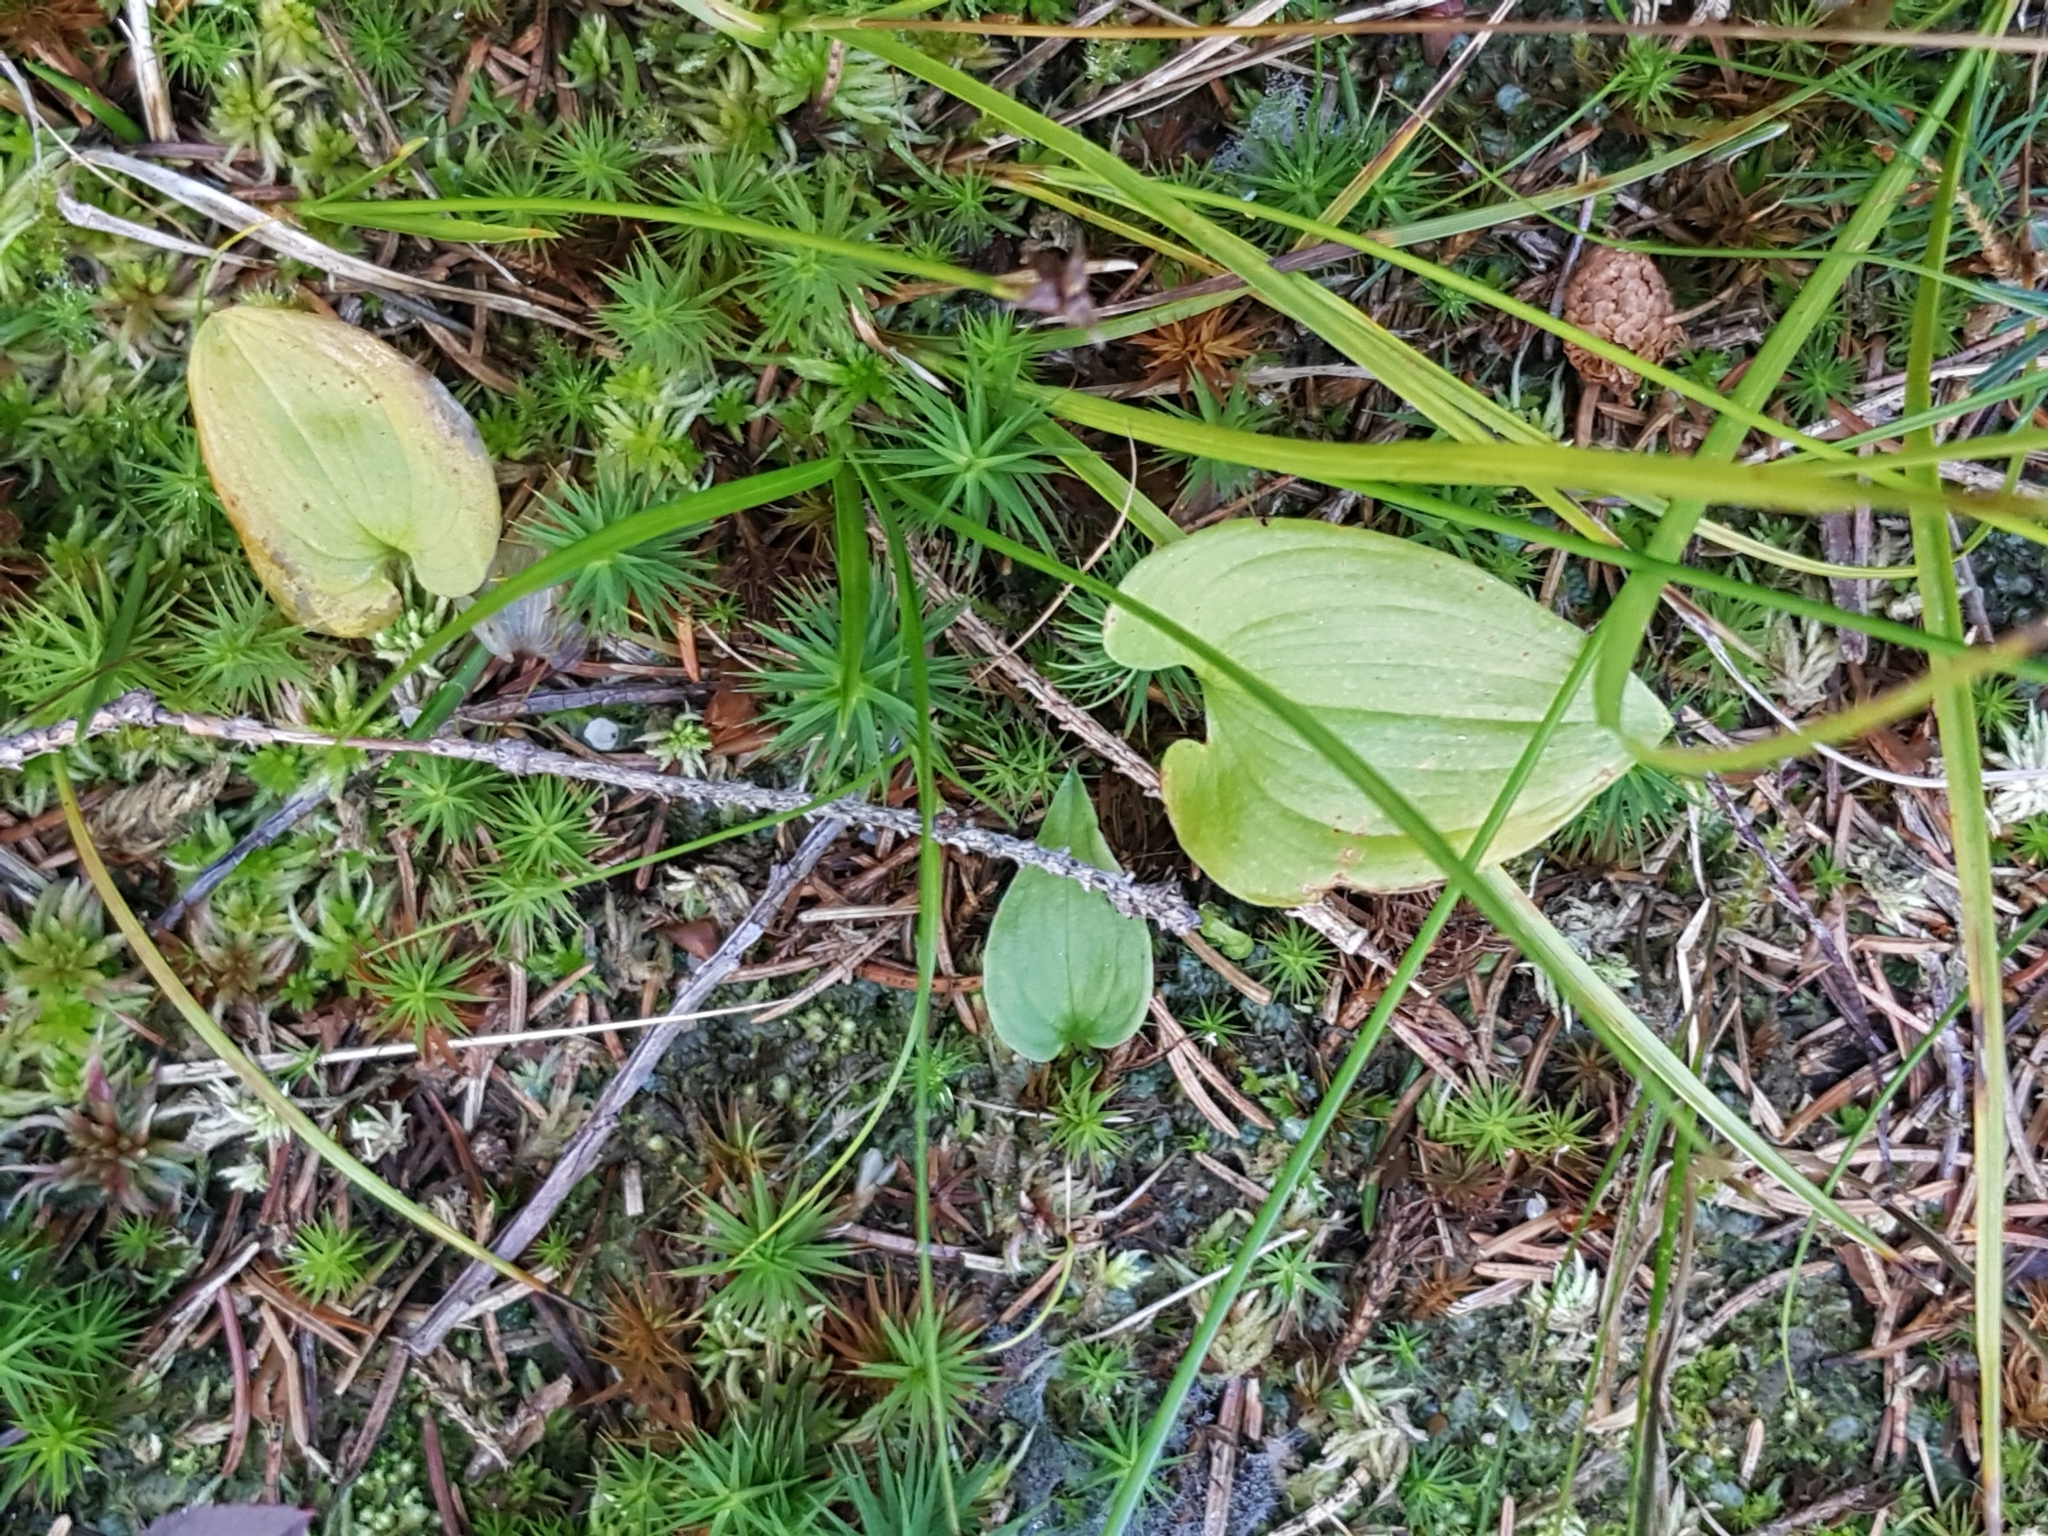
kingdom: Plantae
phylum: Tracheophyta
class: Liliopsida
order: Asparagales
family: Asparagaceae
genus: Maianthemum
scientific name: Maianthemum bifolium
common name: May lily
